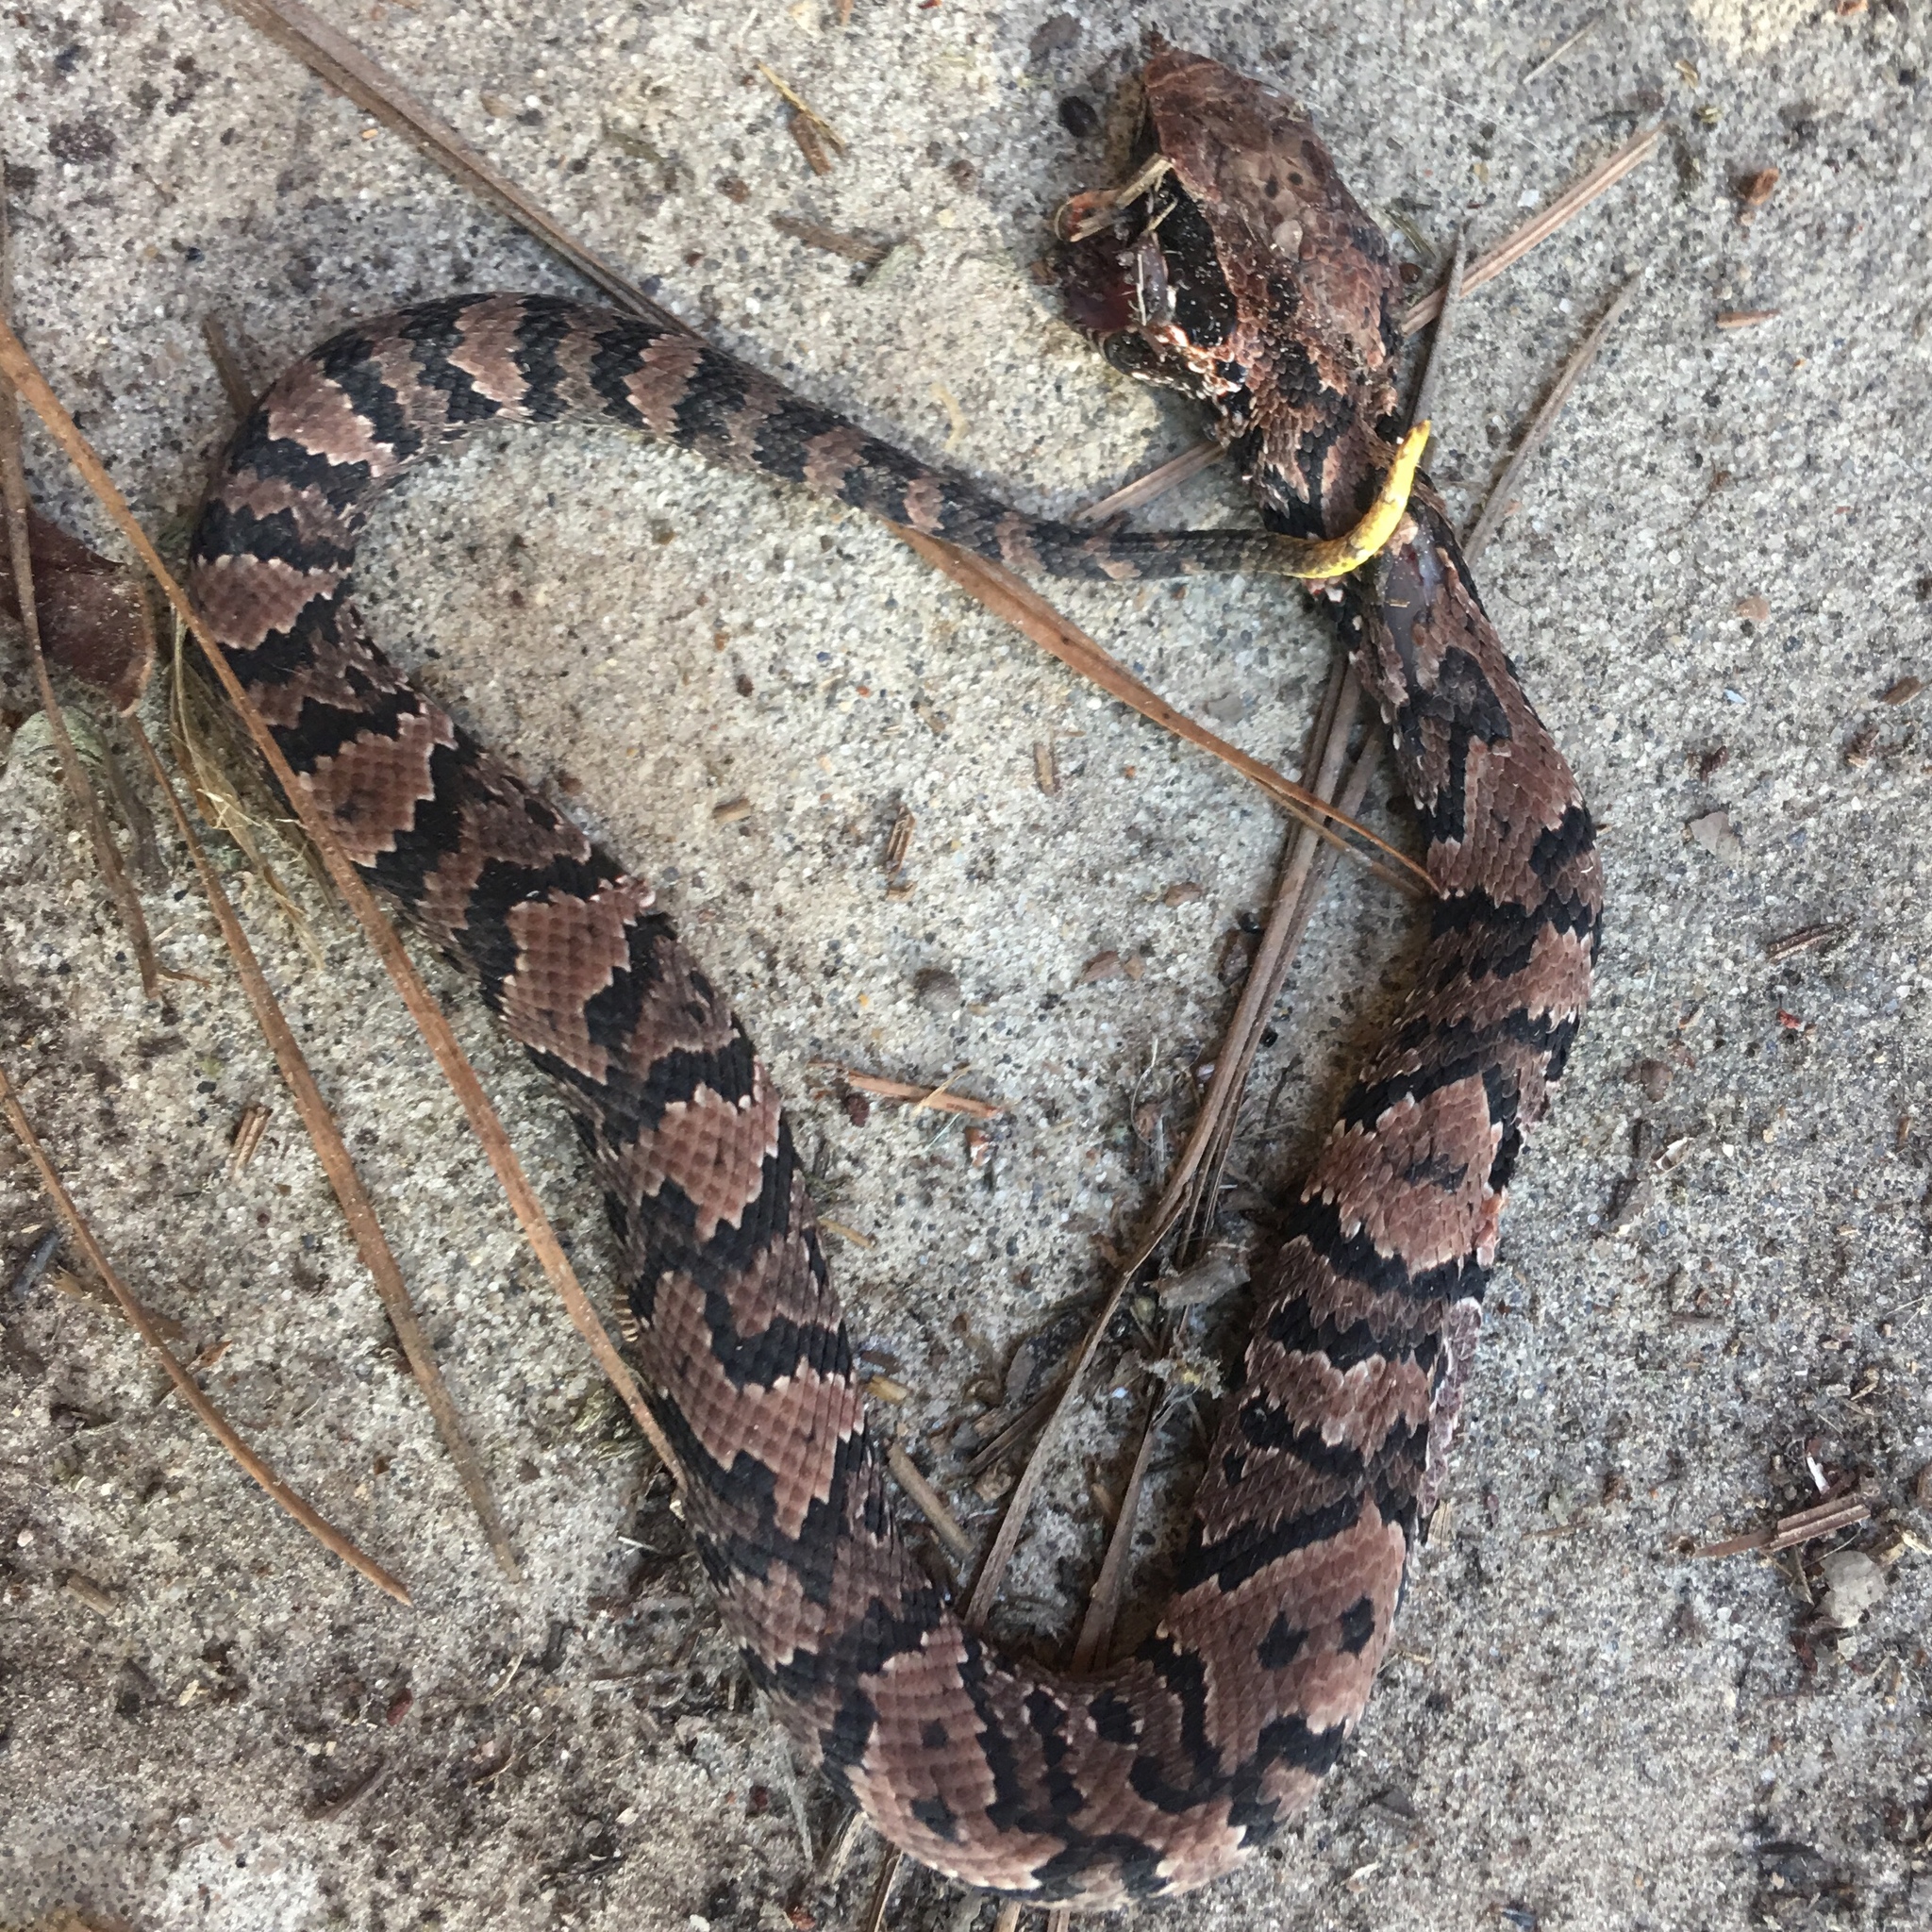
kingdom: Animalia
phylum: Chordata
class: Squamata
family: Viperidae
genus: Agkistrodon
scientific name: Agkistrodon piscivorus
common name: Cottonmouth
